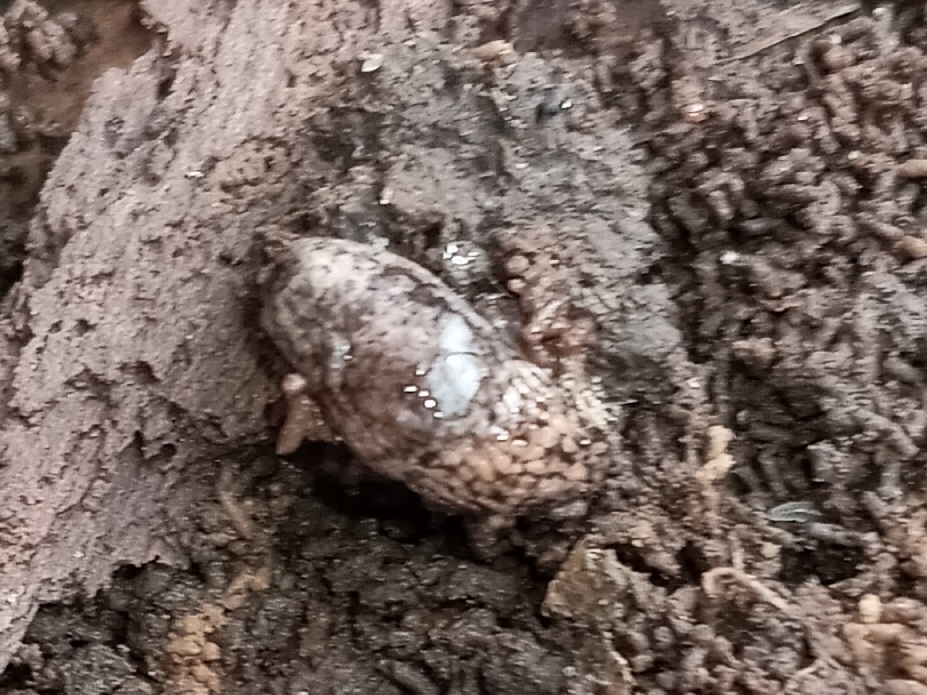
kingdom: Animalia
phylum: Mollusca
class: Gastropoda
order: Stylommatophora
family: Agriolimacidae
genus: Deroceras
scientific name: Deroceras reticulatum
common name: Gray field slug
